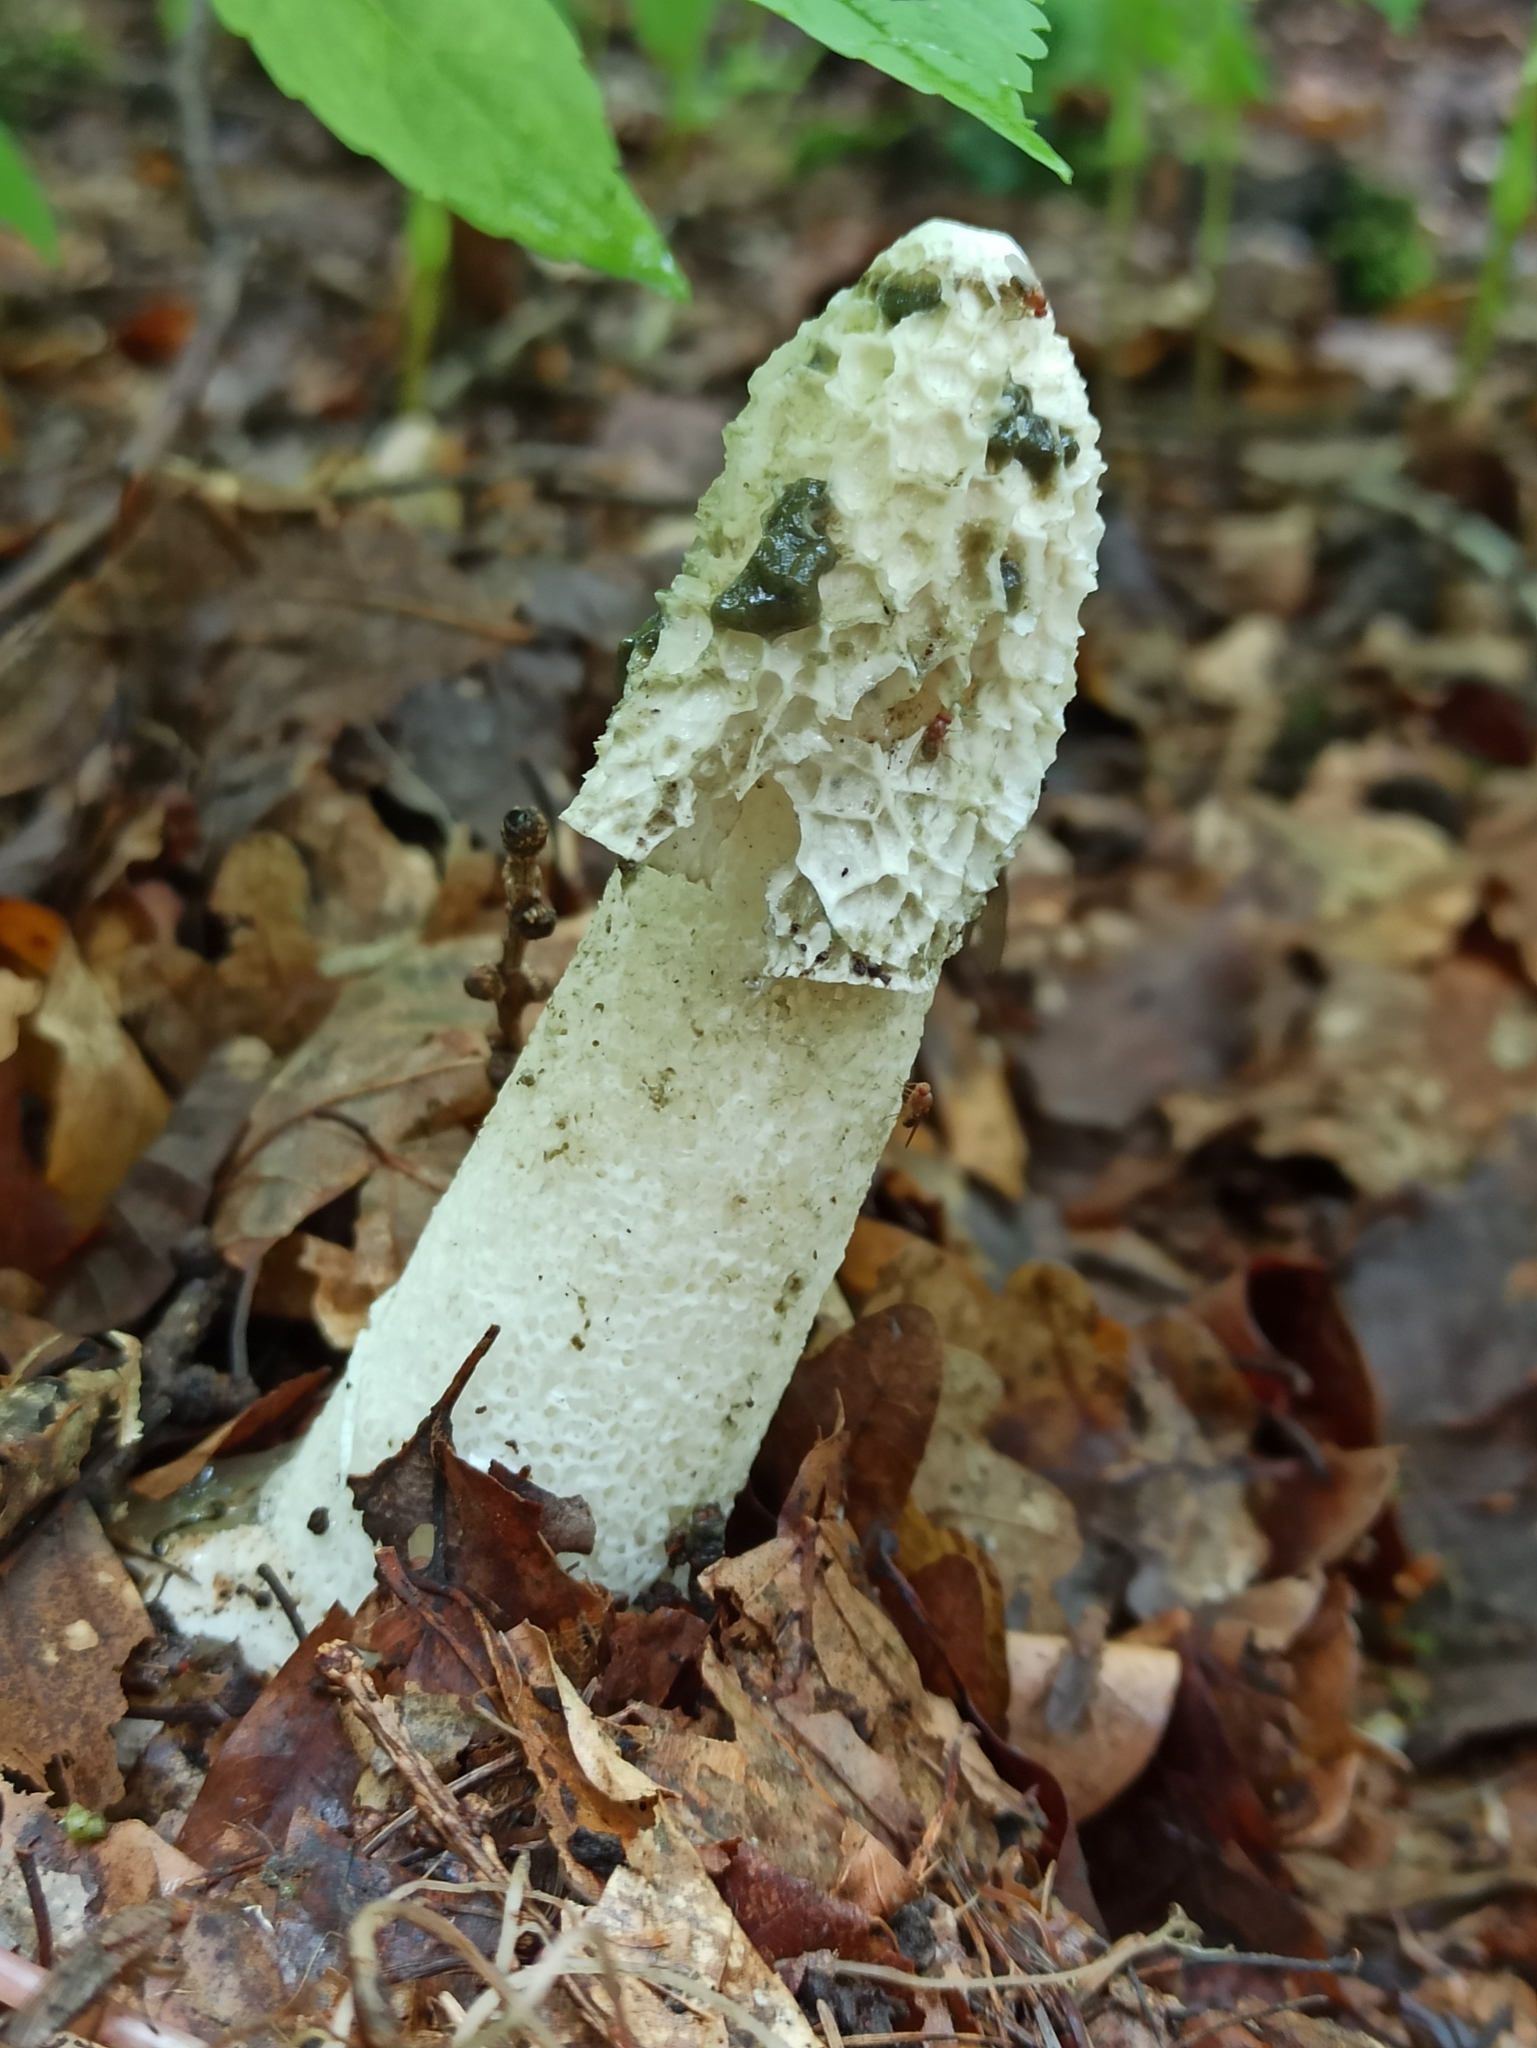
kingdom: Fungi
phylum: Basidiomycota
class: Agaricomycetes
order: Phallales
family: Phallaceae
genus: Phallus
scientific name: Phallus impudicus
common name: Common stinkhorn
